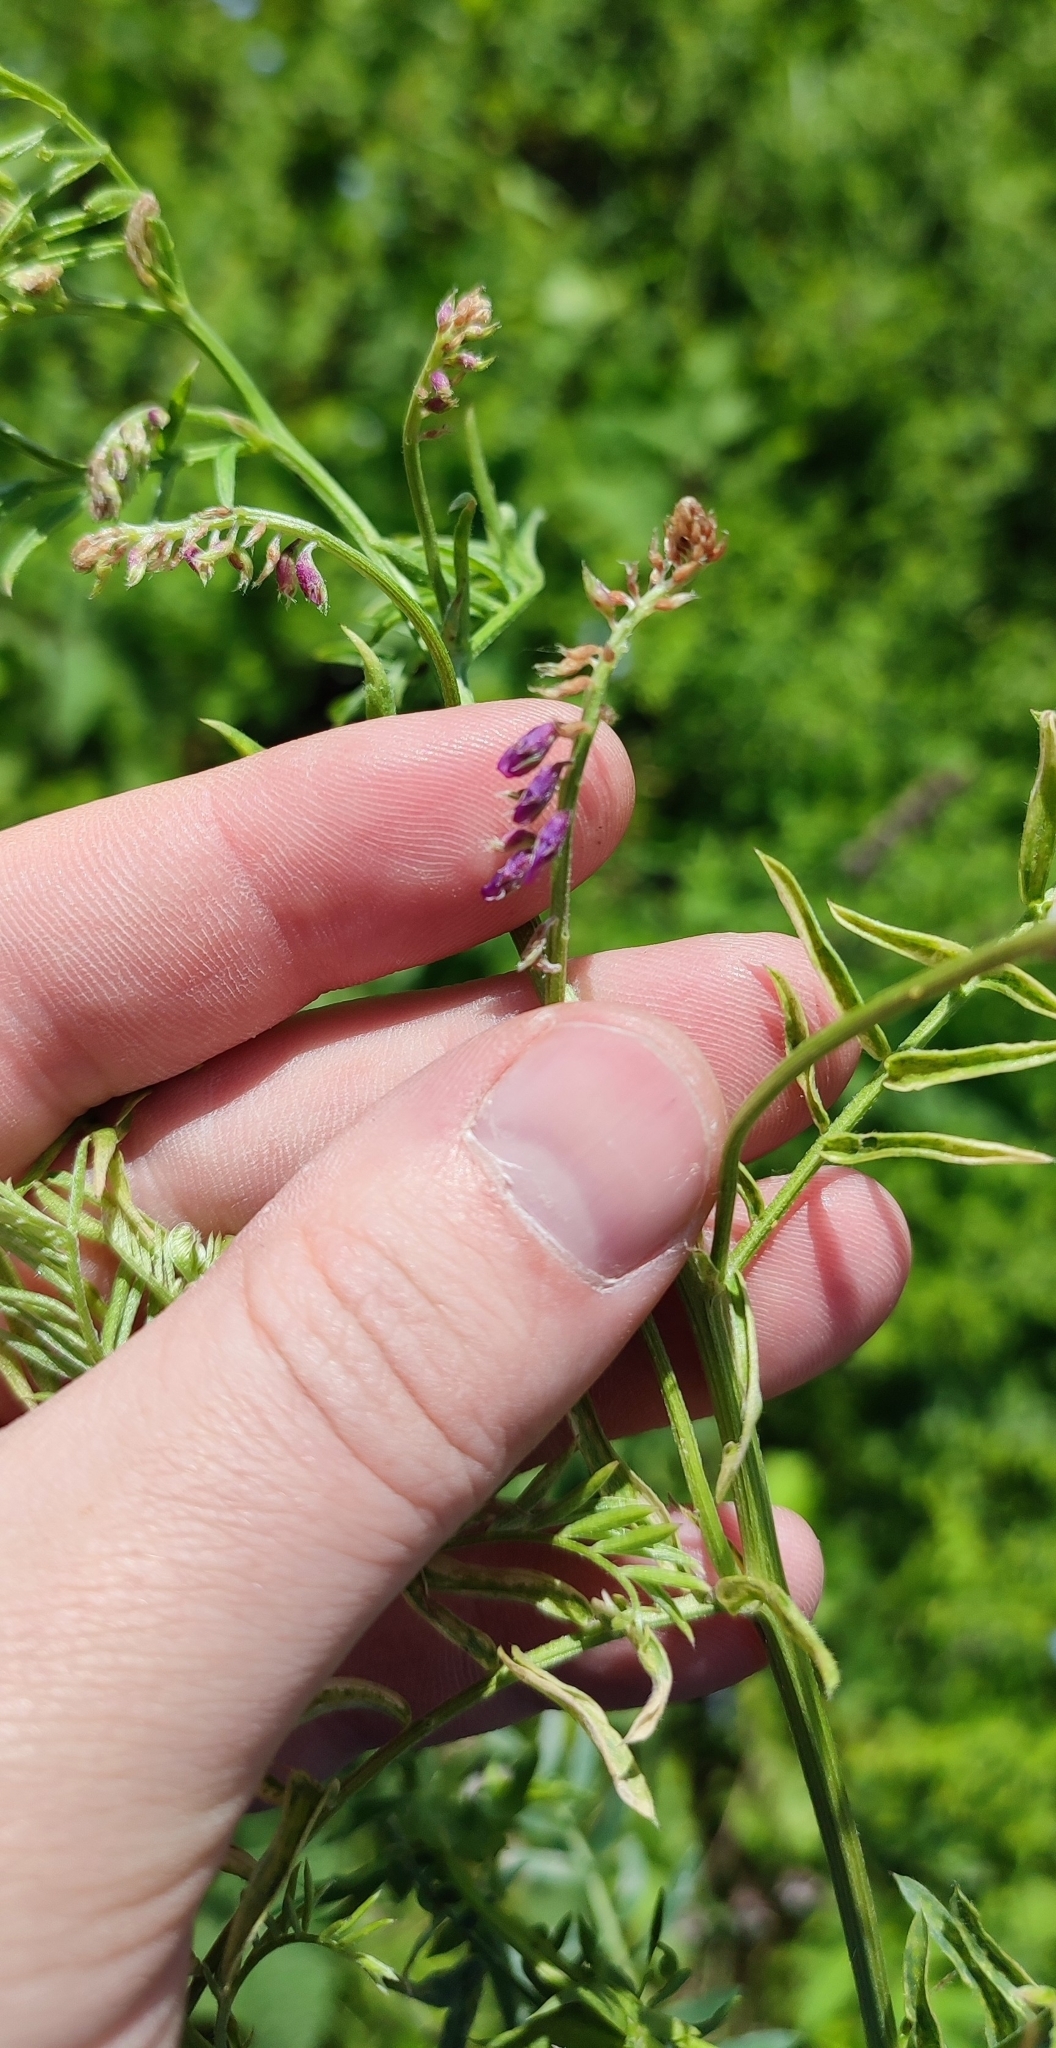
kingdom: Plantae
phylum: Tracheophyta
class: Magnoliopsida
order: Fabales
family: Fabaceae
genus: Vicia
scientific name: Vicia cracca
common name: Bird vetch
